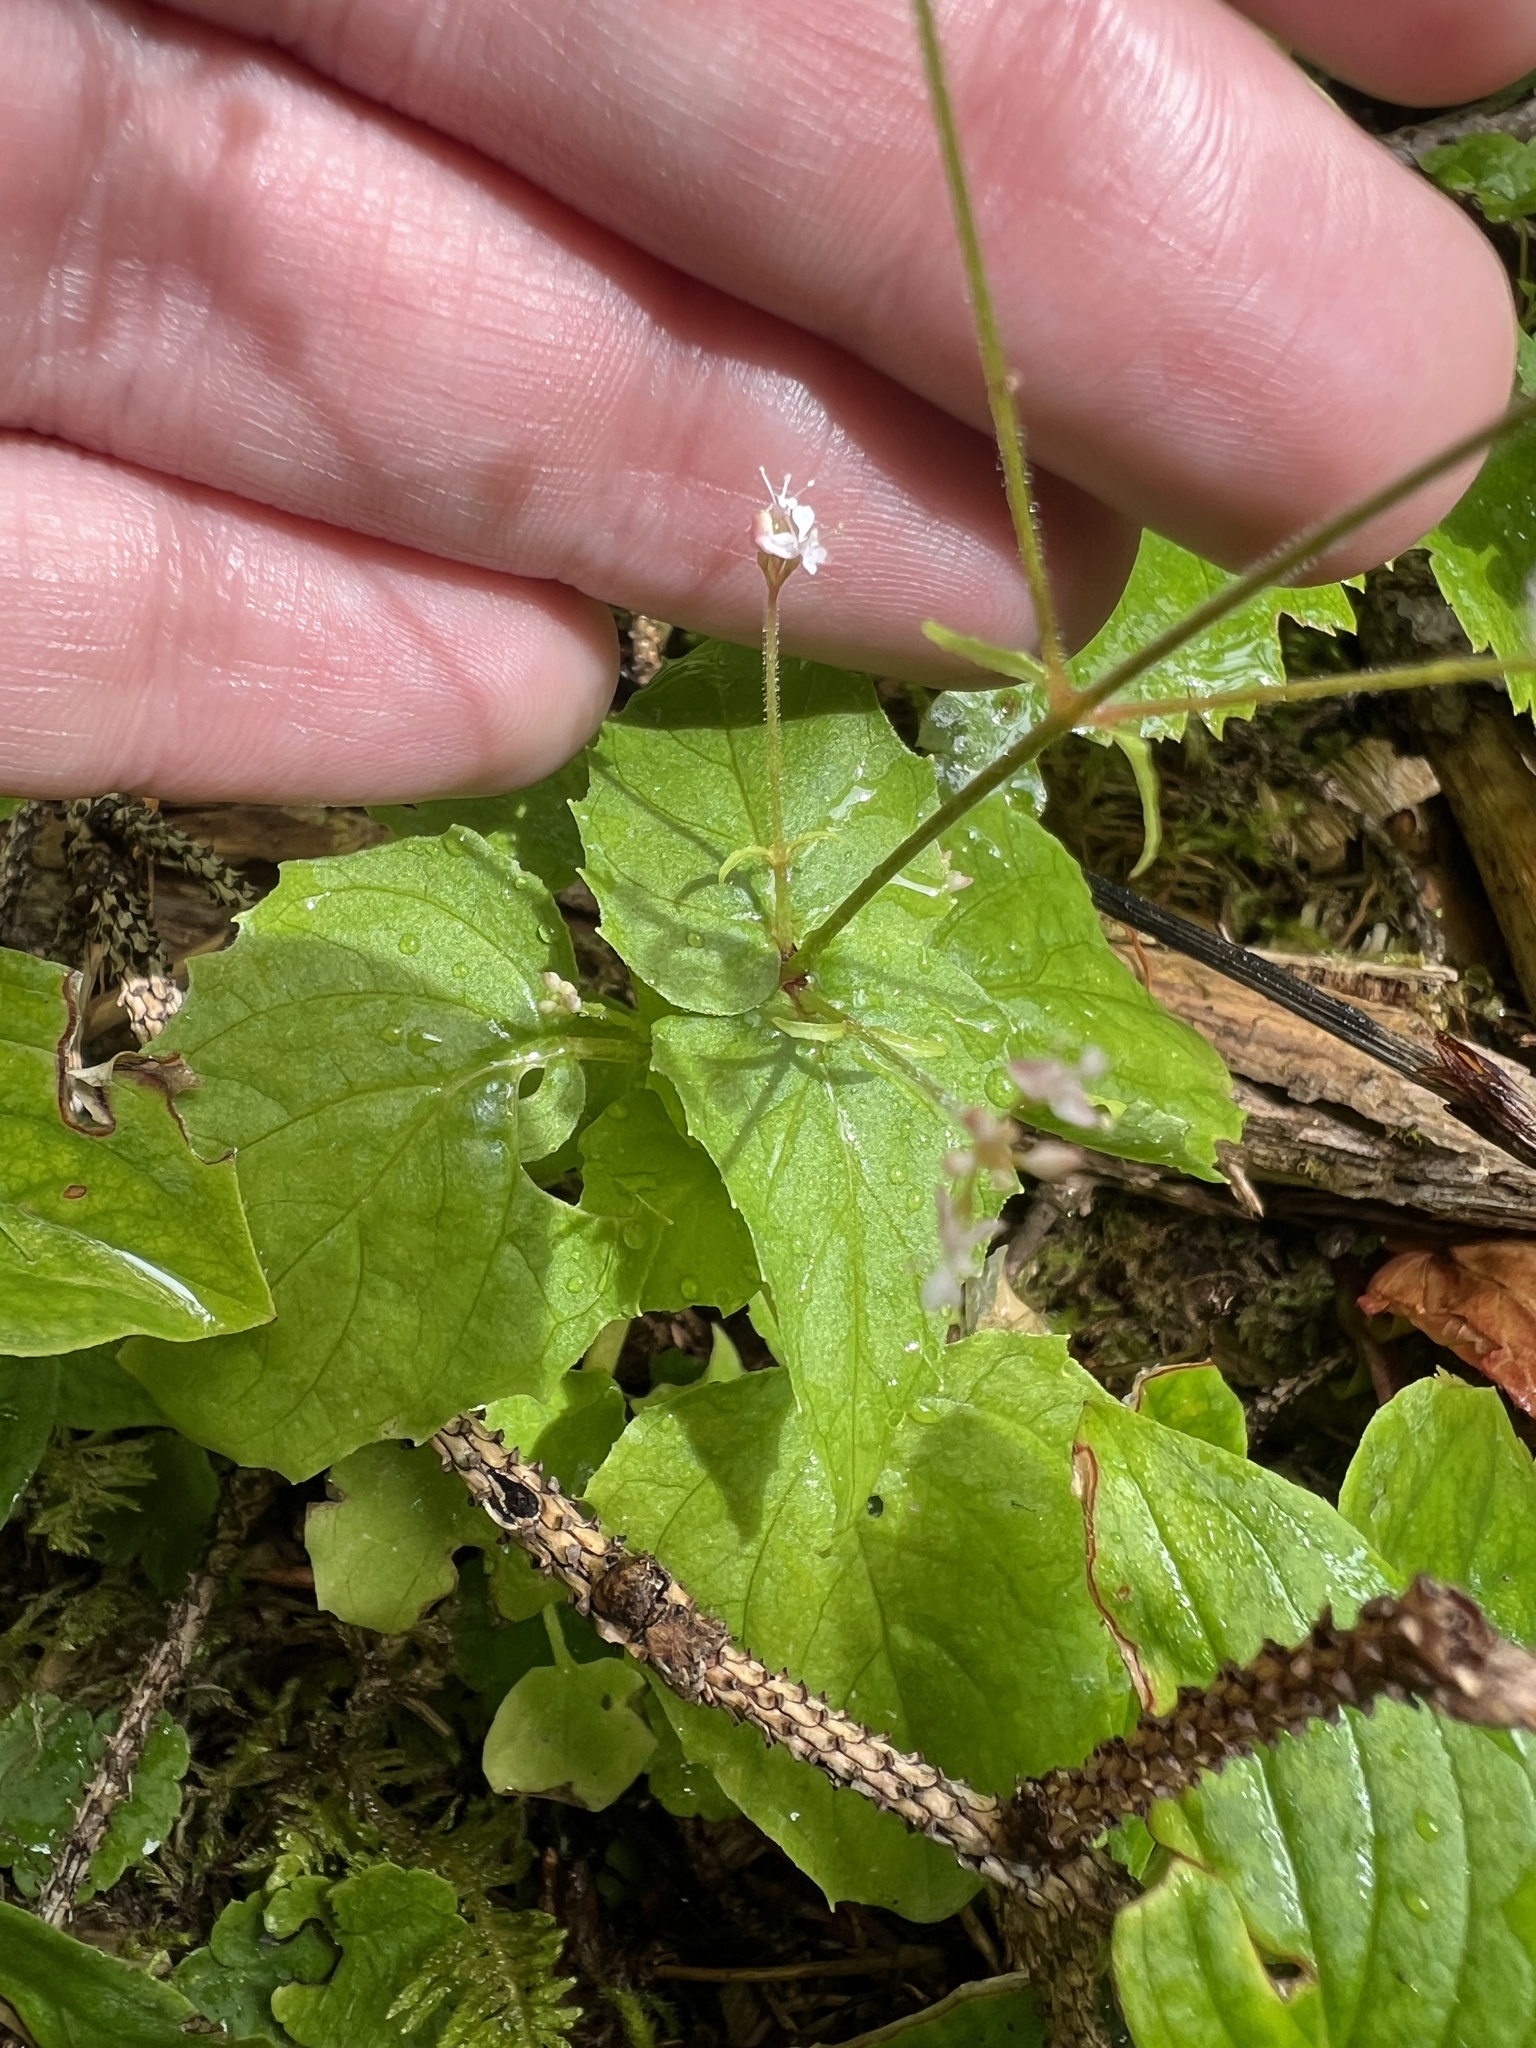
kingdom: Plantae
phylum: Tracheophyta
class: Magnoliopsida
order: Myrtales
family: Onagraceae
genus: Circaea
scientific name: Circaea alpina
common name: Alpine enchanter's-nightshade
